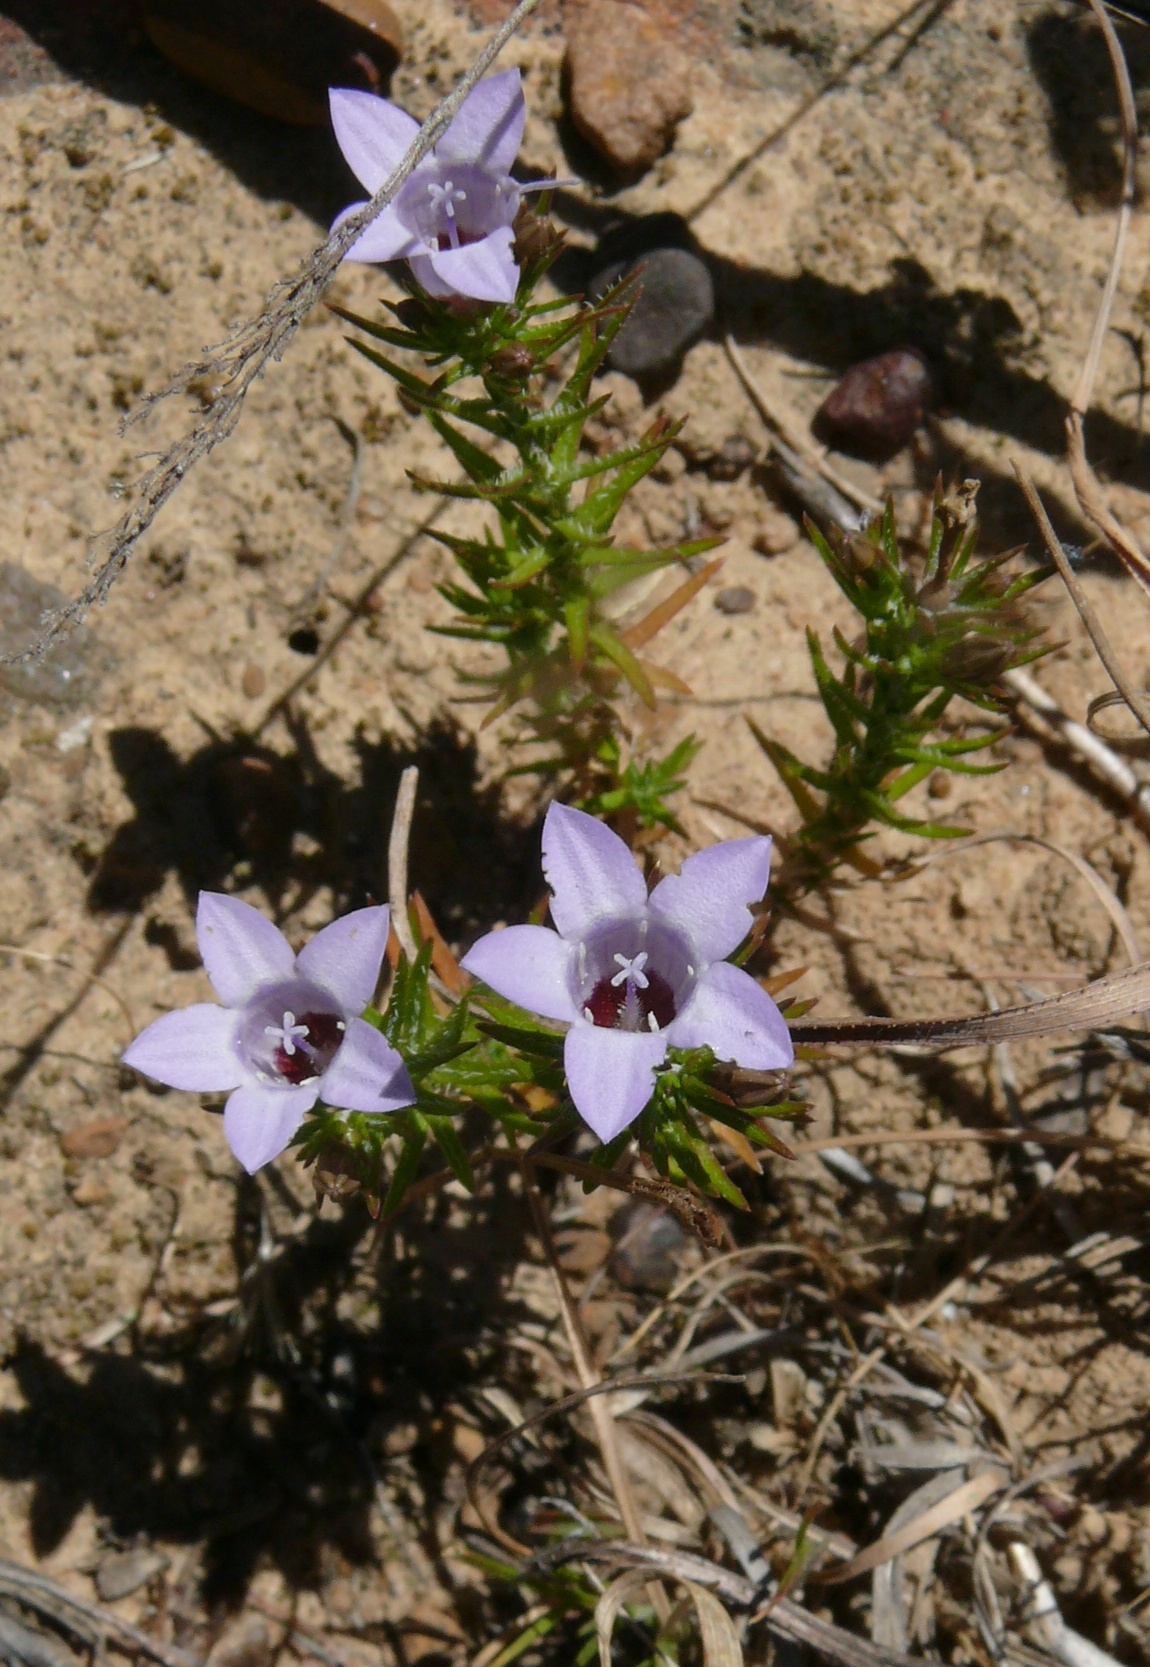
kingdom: Plantae
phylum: Tracheophyta
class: Magnoliopsida
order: Asterales
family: Campanulaceae
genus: Wahlenbergia
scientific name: Wahlenbergia oxyphylla
